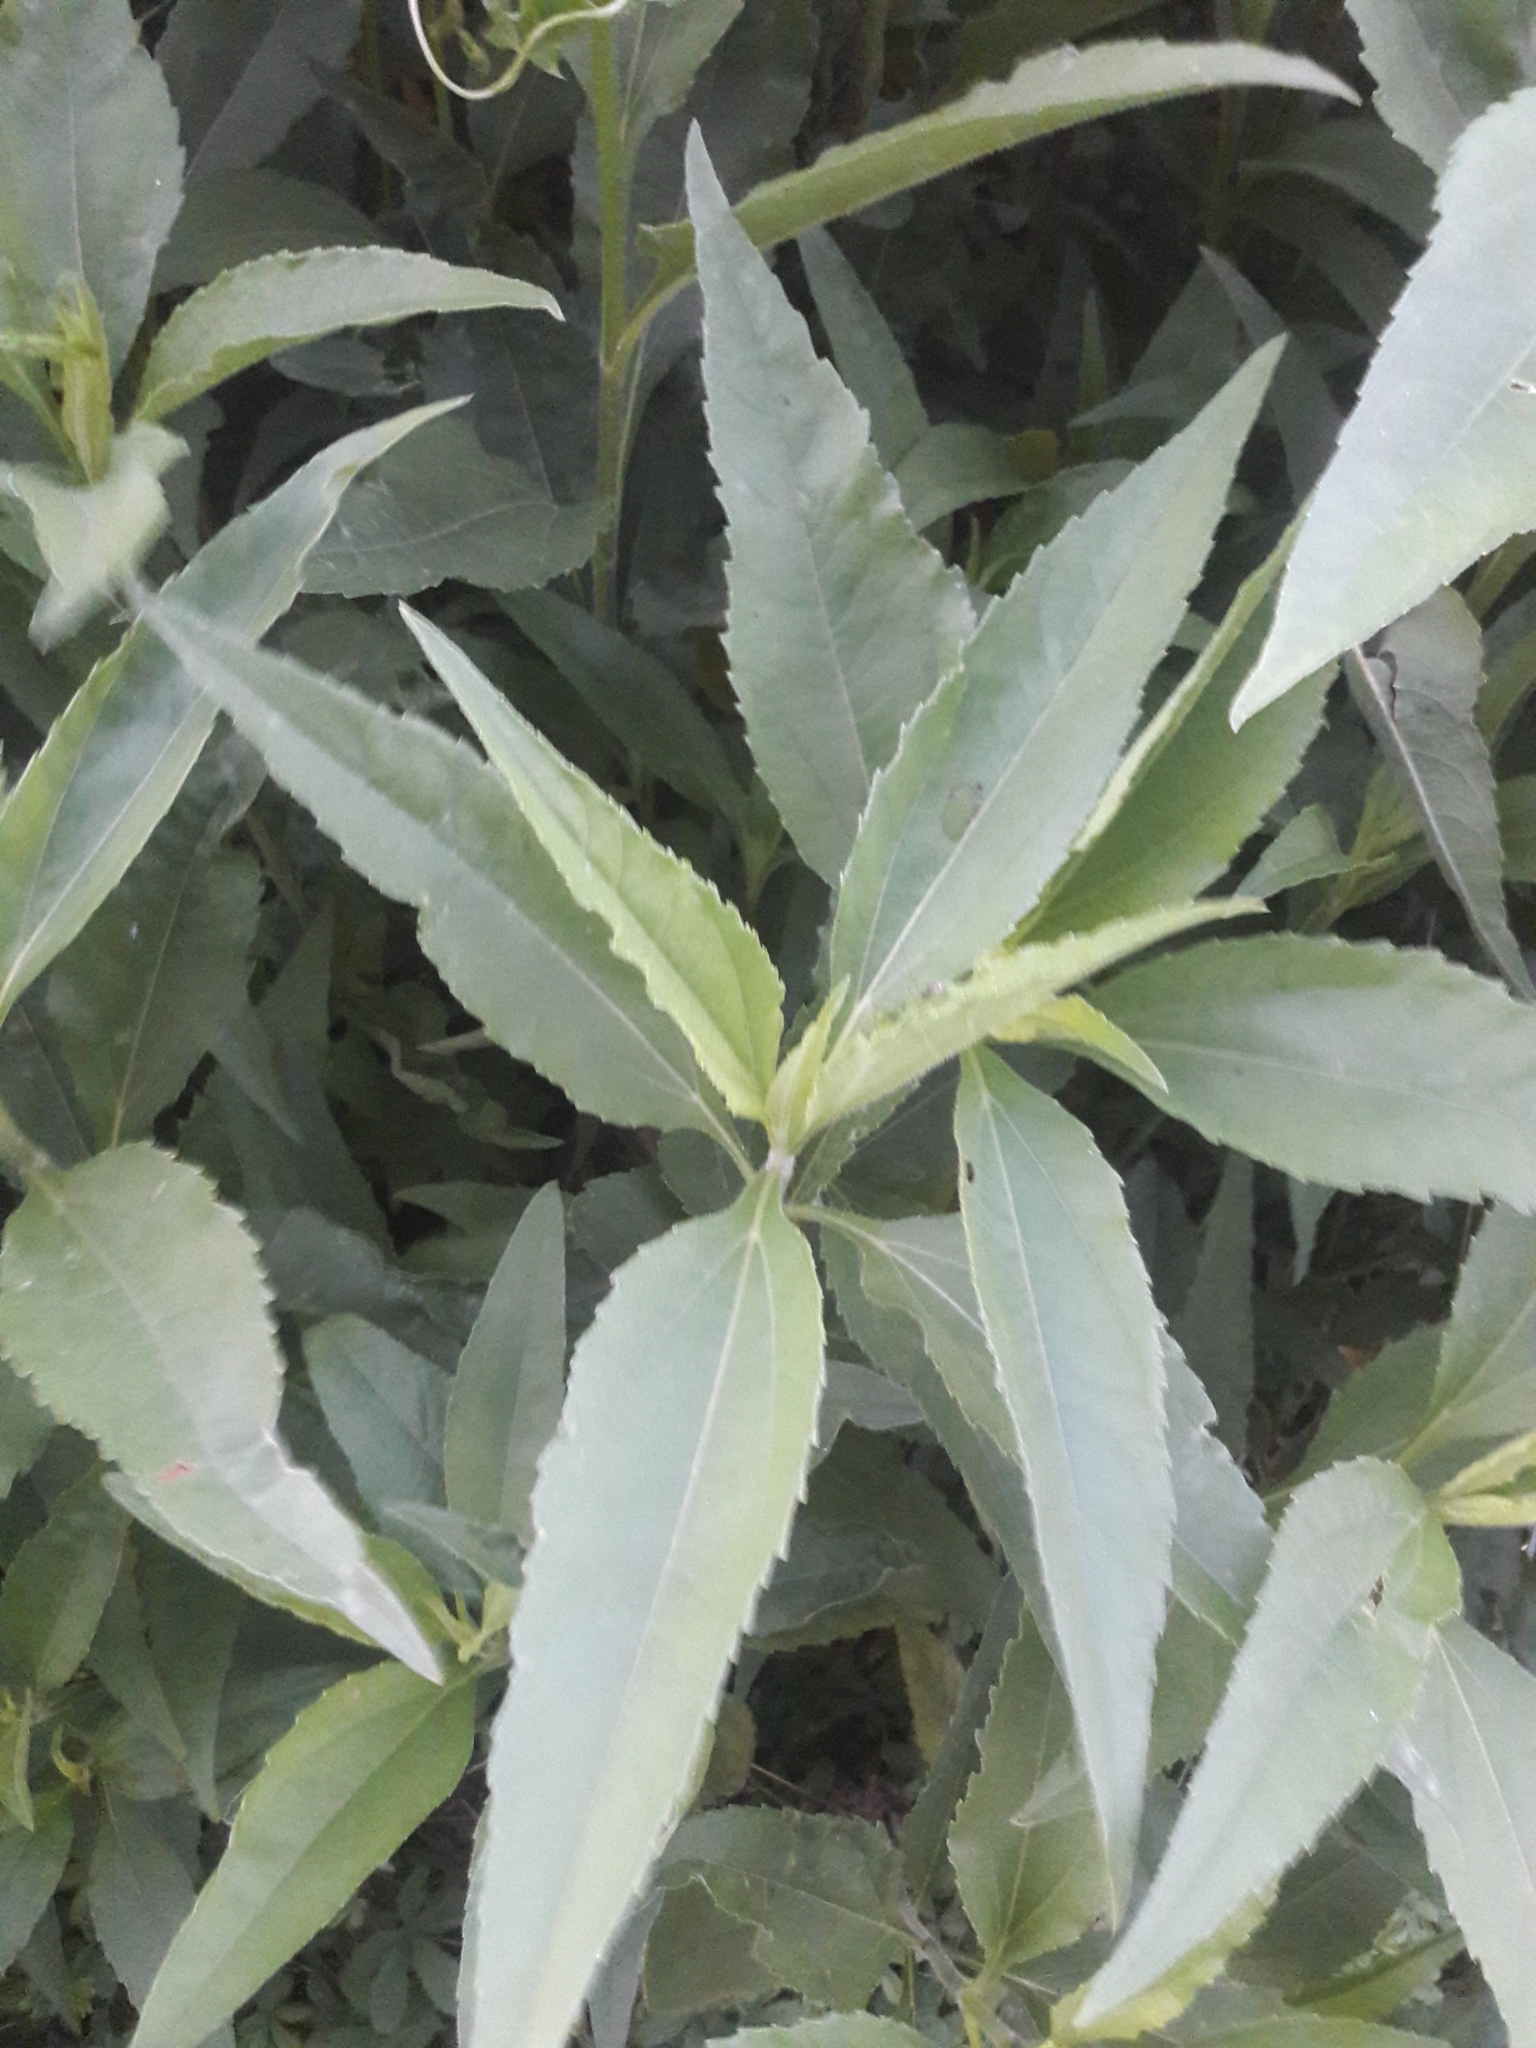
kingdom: Plantae
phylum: Tracheophyta
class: Magnoliopsida
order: Asterales
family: Asteraceae
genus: Helianthus
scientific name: Helianthus tuberosus
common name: Jerusalem artichoke
